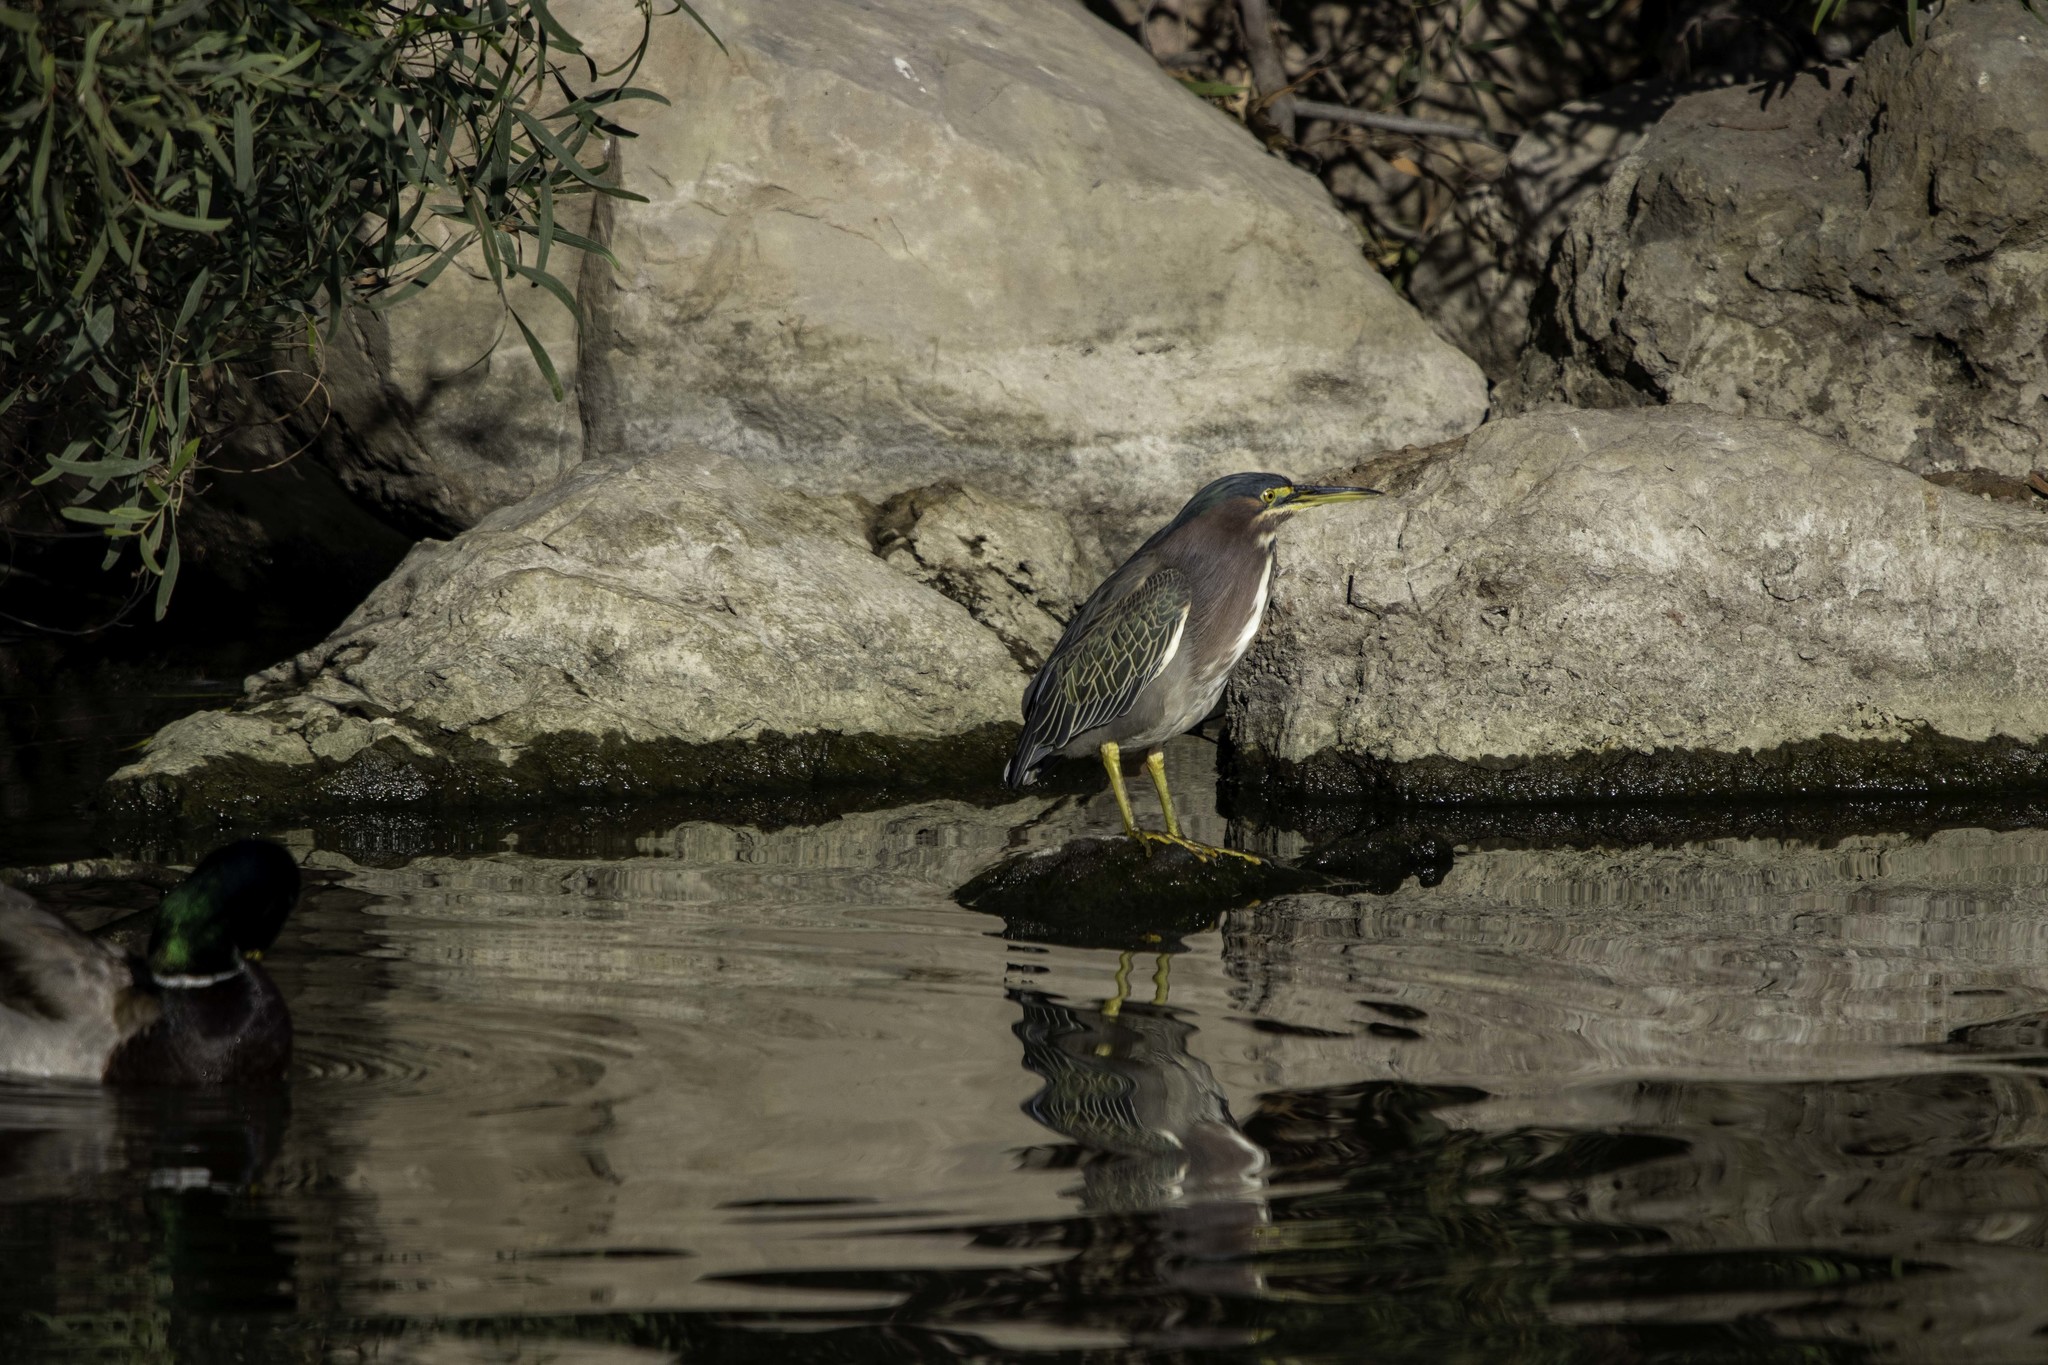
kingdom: Animalia
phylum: Chordata
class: Aves
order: Pelecaniformes
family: Ardeidae
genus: Butorides
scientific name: Butorides virescens
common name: Green heron
